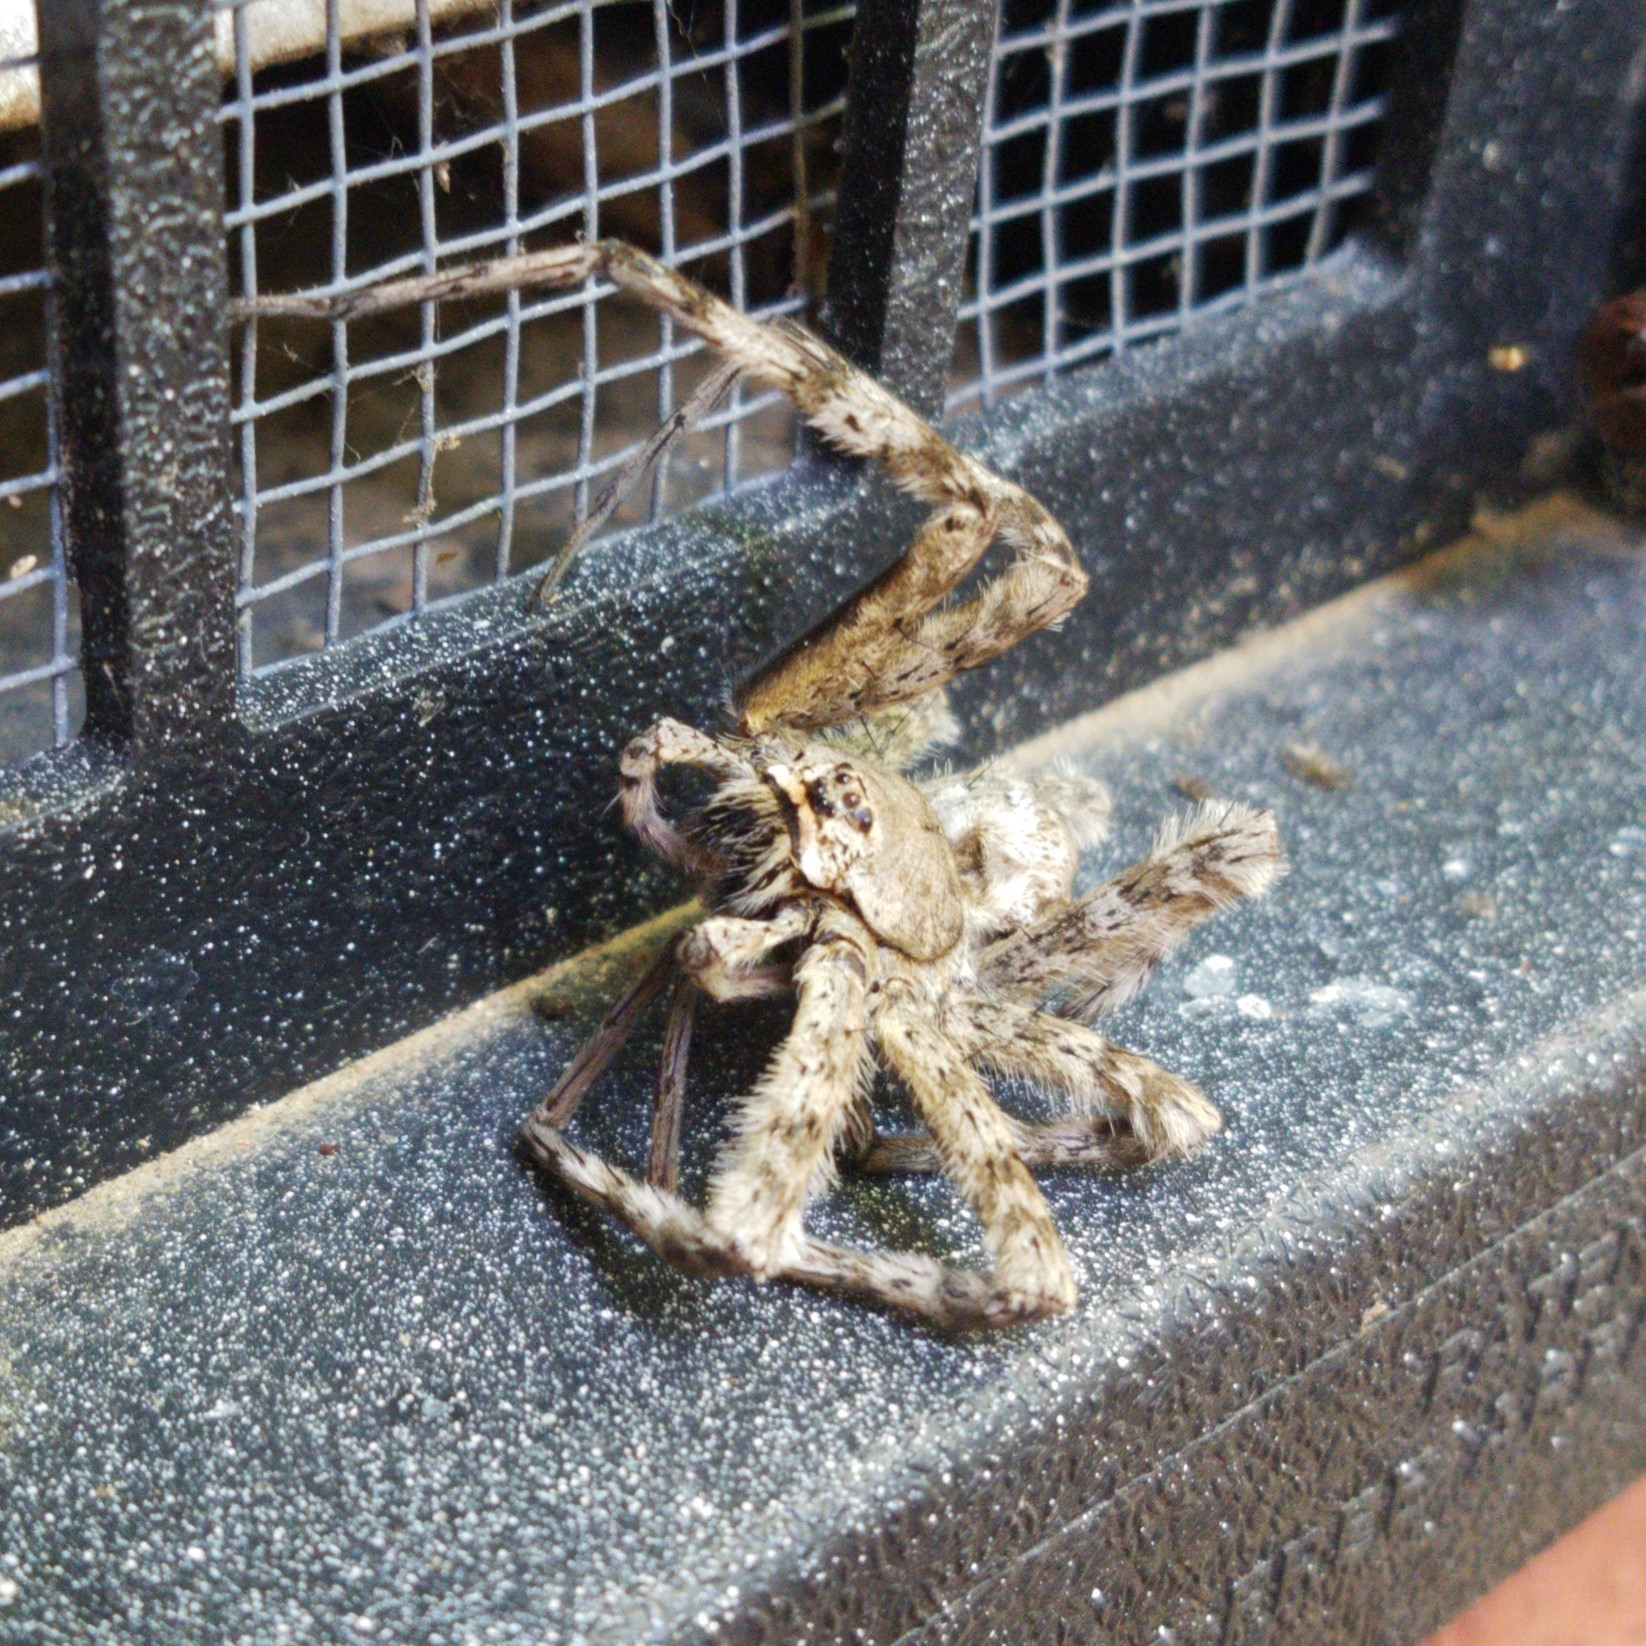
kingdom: Animalia
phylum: Arthropoda
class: Arachnida
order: Araneae
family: Pisauridae
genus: Dolomedes
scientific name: Dolomedes albineus
